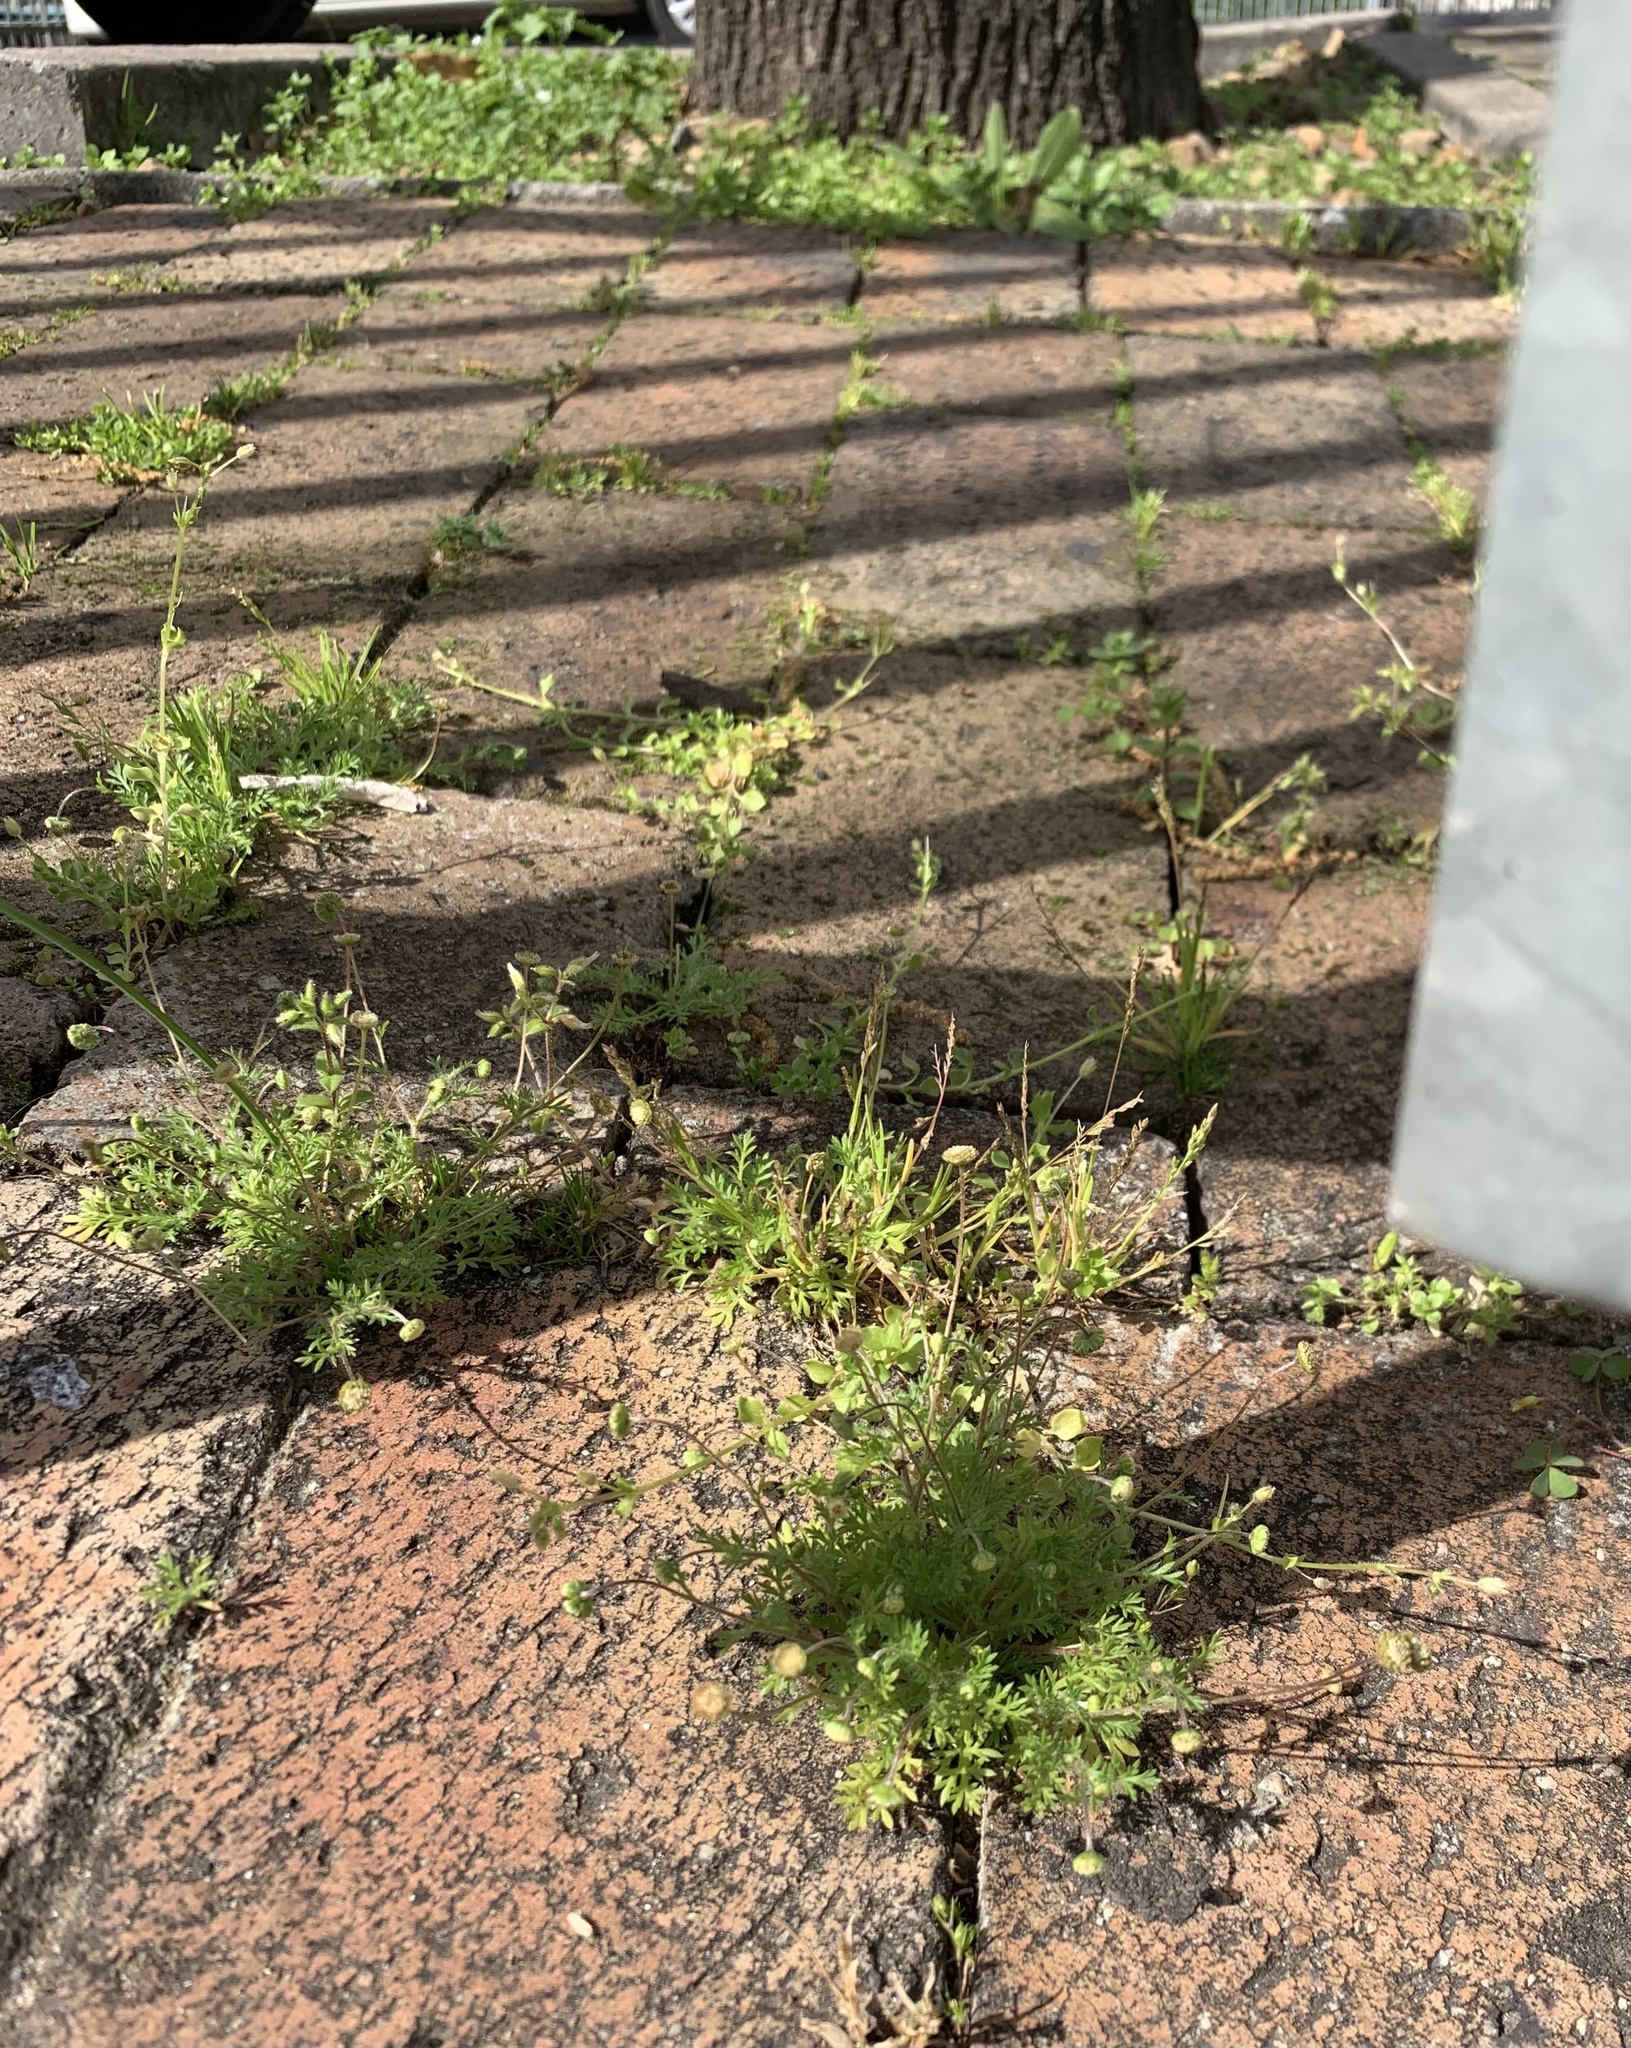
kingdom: Plantae
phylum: Tracheophyta
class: Magnoliopsida
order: Asterales
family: Asteraceae
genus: Cotula
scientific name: Cotula australis
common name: Australian waterbuttons
